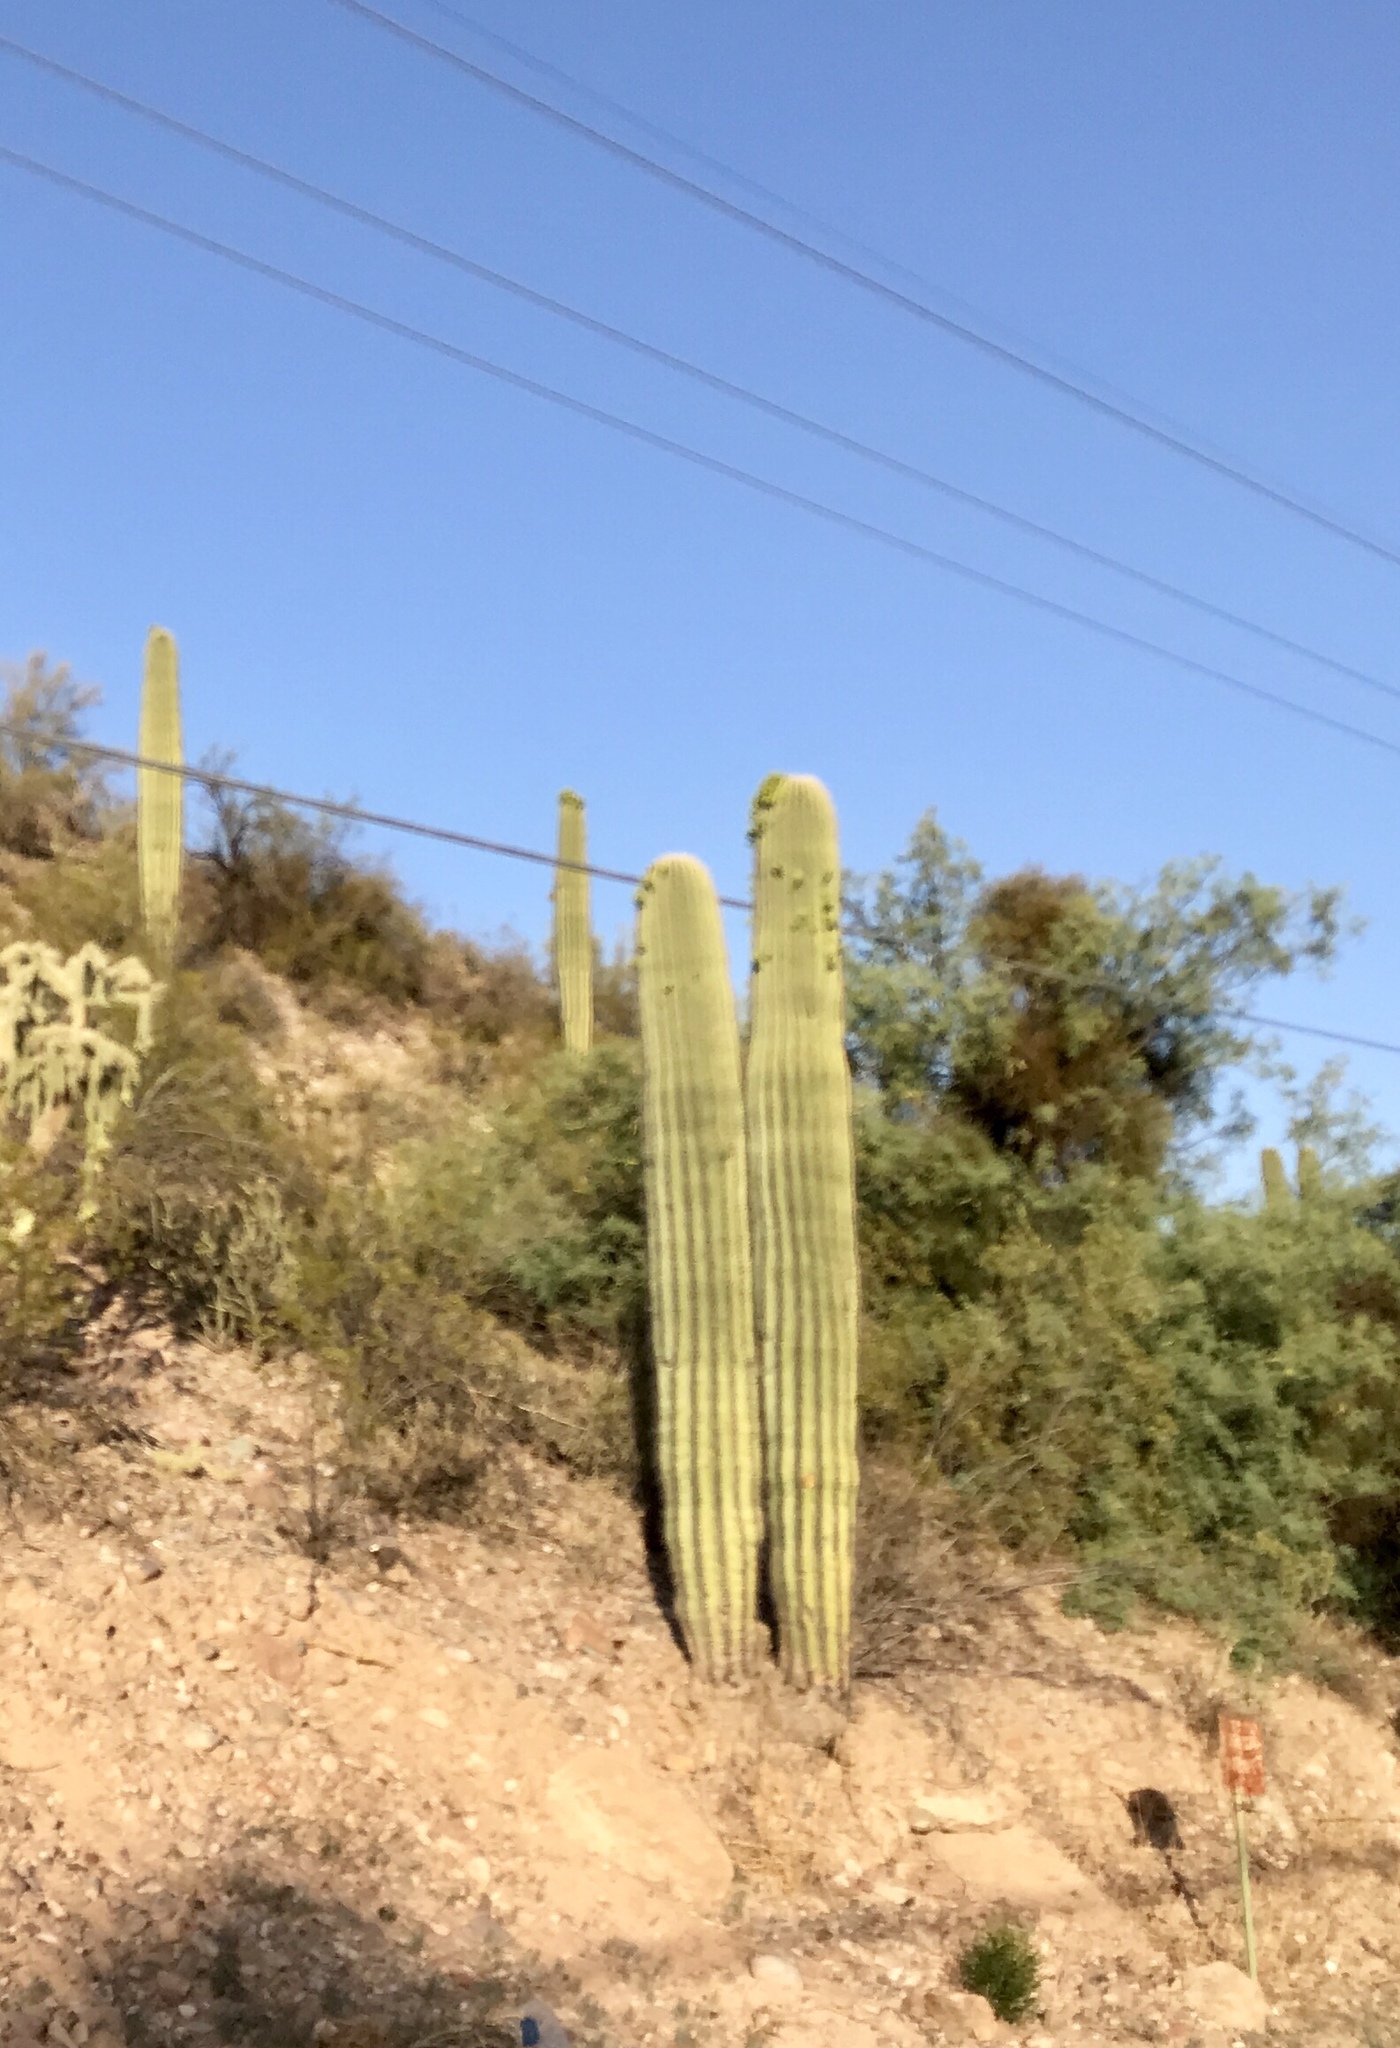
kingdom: Plantae
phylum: Tracheophyta
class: Magnoliopsida
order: Caryophyllales
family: Cactaceae
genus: Carnegiea
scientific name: Carnegiea gigantea
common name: Saguaro
